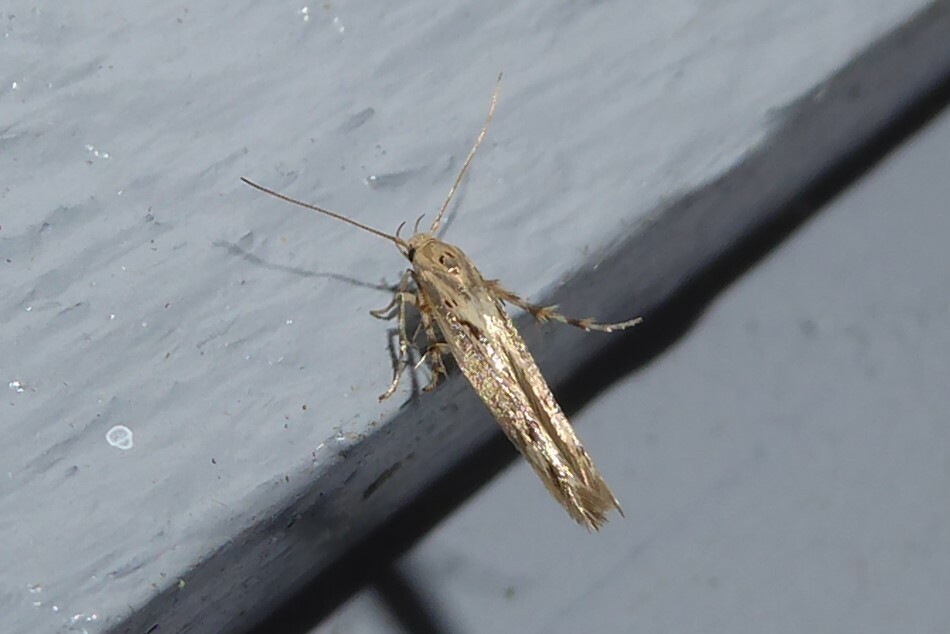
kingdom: Animalia
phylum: Arthropoda
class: Insecta
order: Lepidoptera
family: Stathmopodidae
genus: Stathmopoda
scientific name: Stathmopoda plumbiflua
